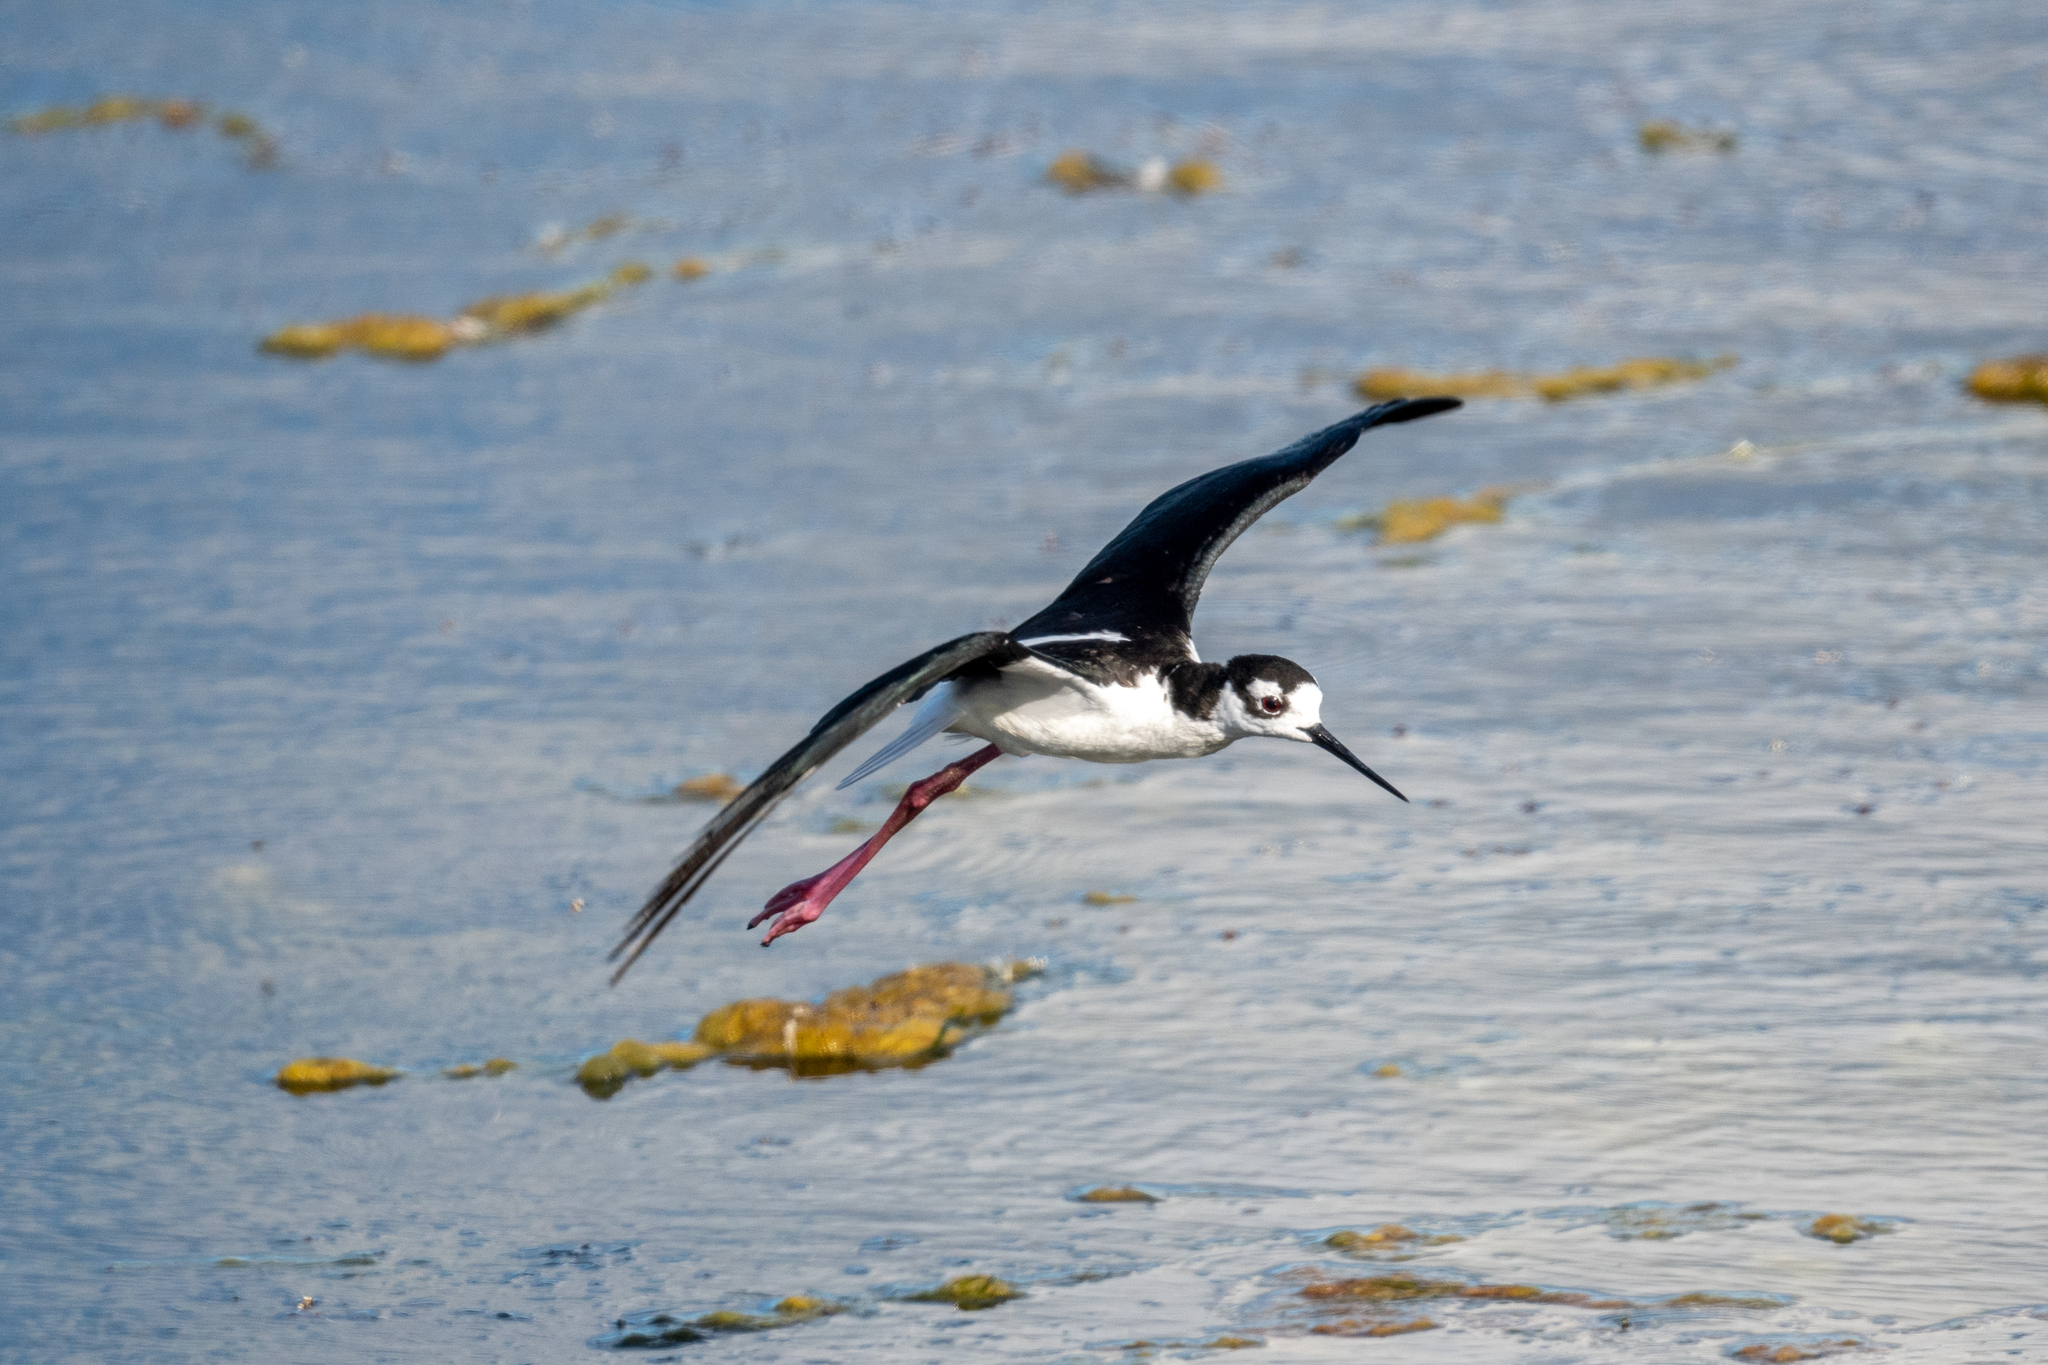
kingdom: Animalia
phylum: Chordata
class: Aves
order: Charadriiformes
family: Recurvirostridae
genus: Himantopus
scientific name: Himantopus mexicanus
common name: Black-necked stilt
